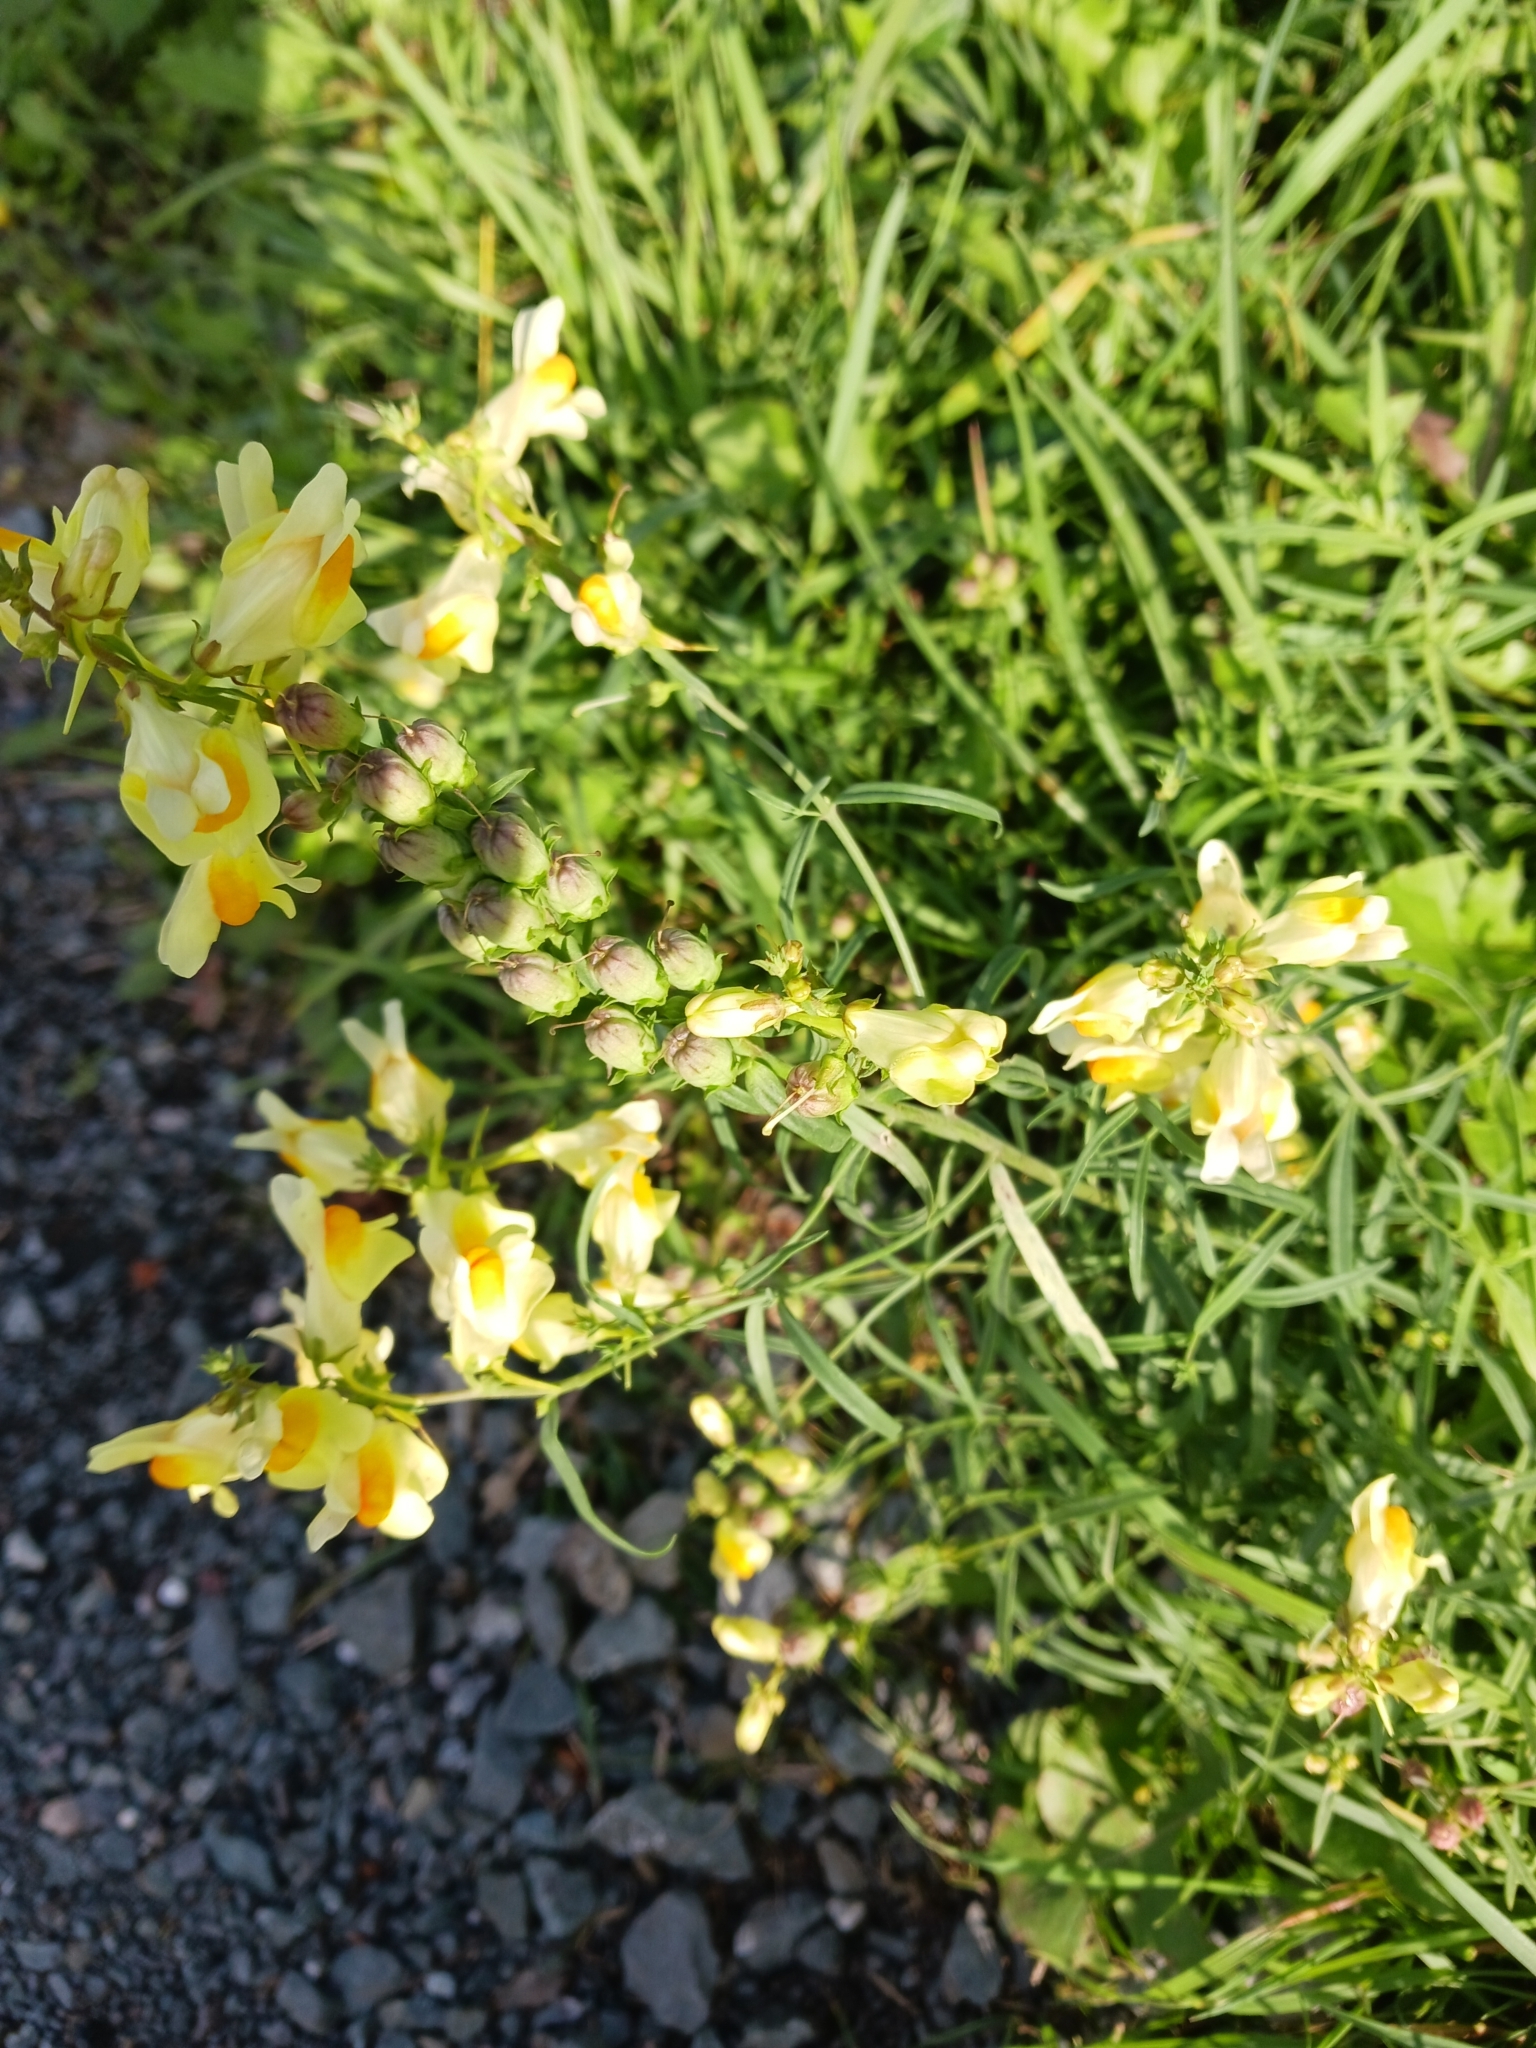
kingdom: Plantae
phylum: Tracheophyta
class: Magnoliopsida
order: Lamiales
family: Plantaginaceae
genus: Linaria
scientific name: Linaria vulgaris
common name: Butter and eggs
